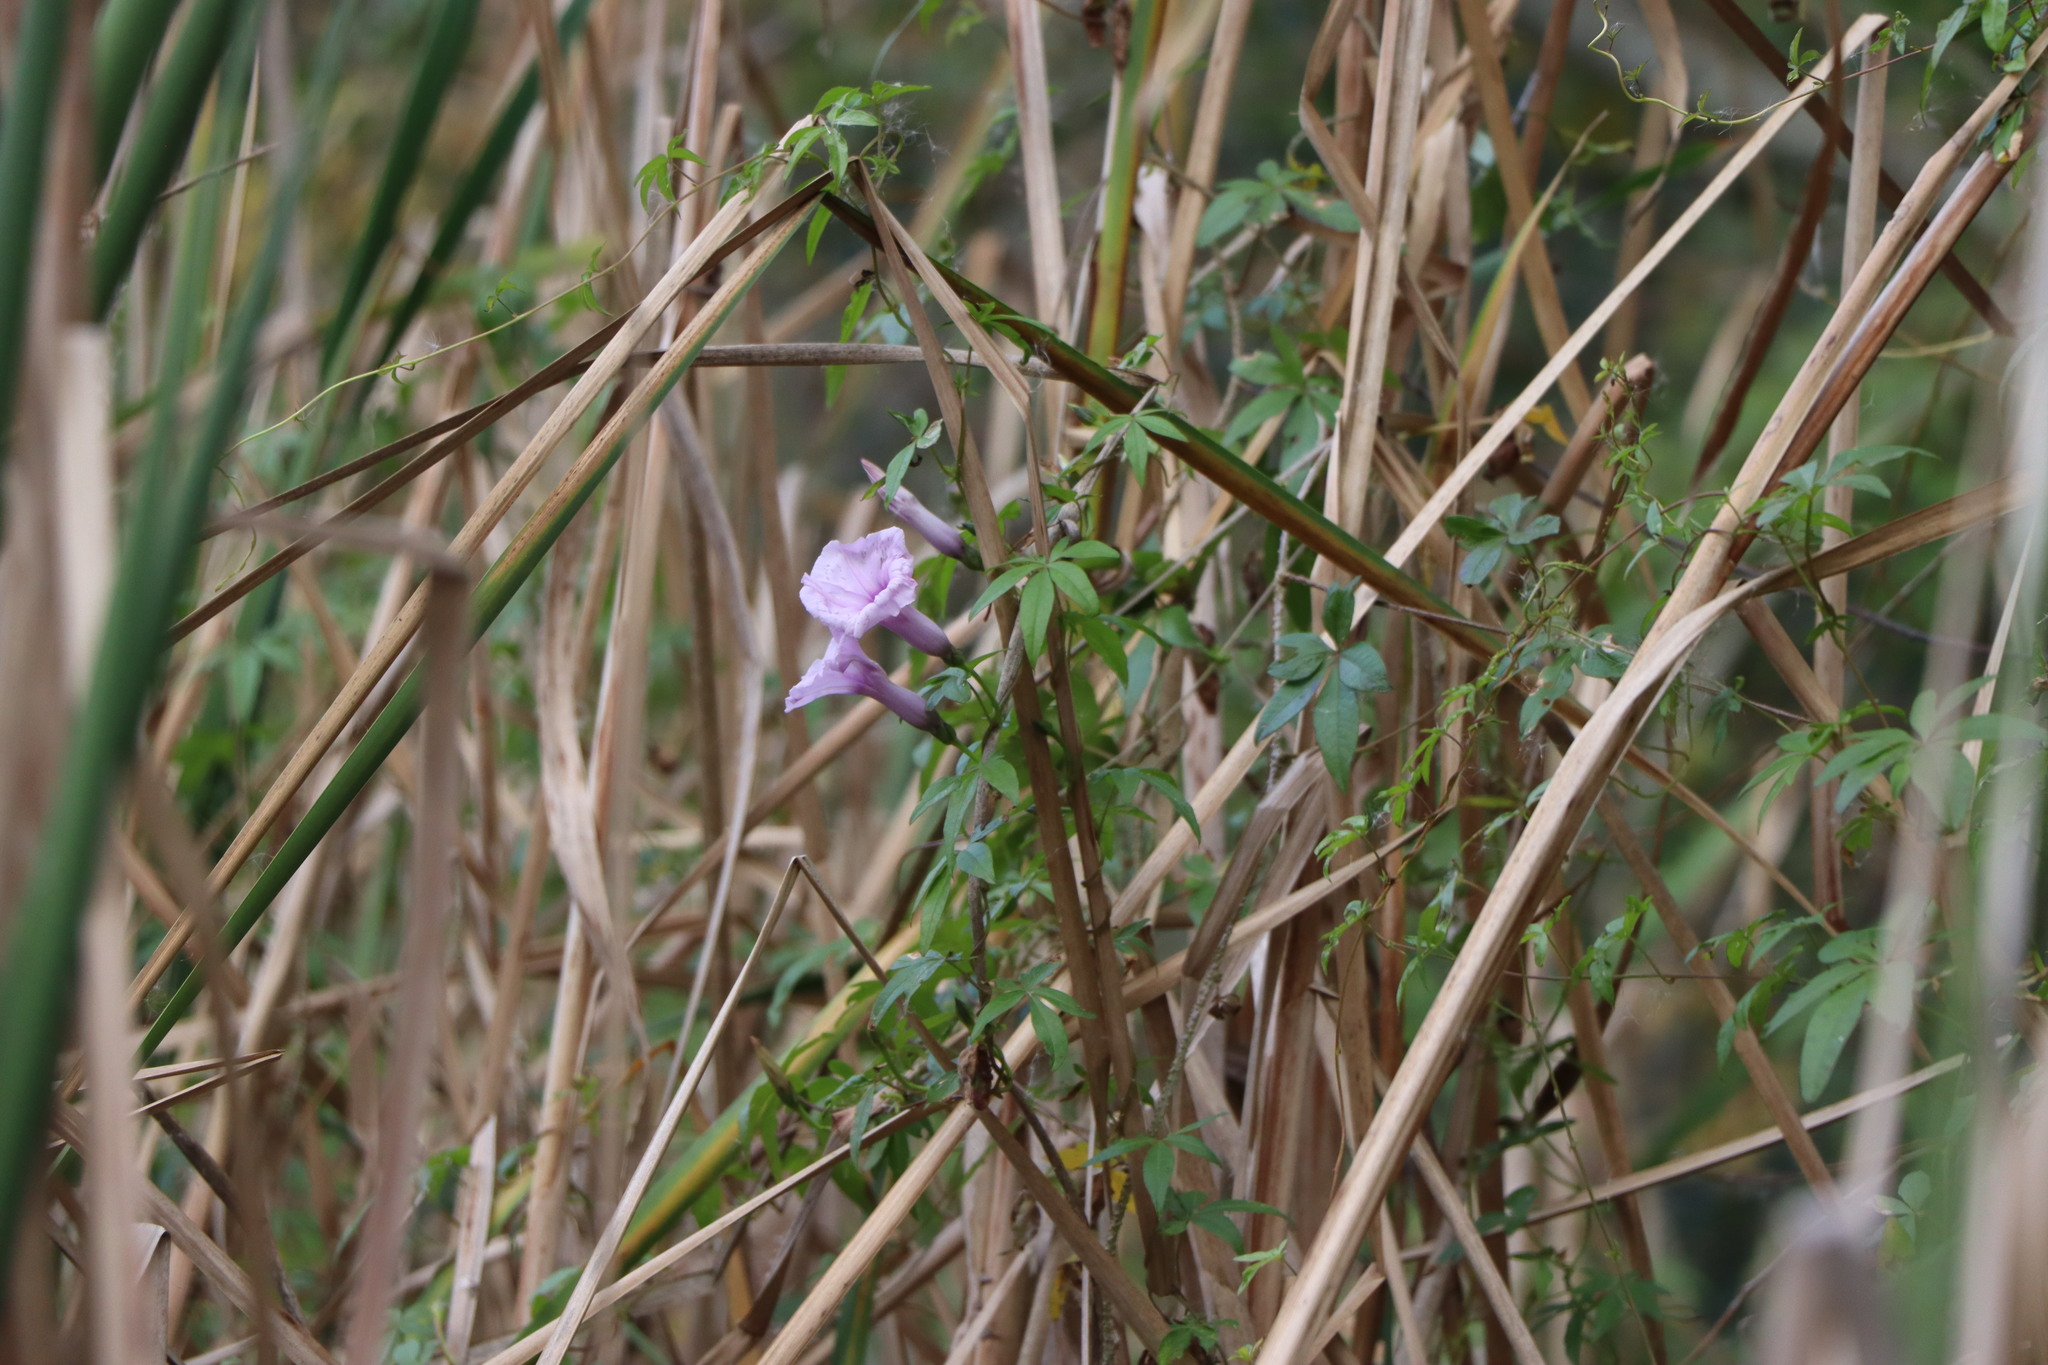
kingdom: Plantae
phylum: Tracheophyta
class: Magnoliopsida
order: Solanales
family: Convolvulaceae
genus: Ipomoea
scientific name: Ipomoea cairica
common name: Mile a minute vine
